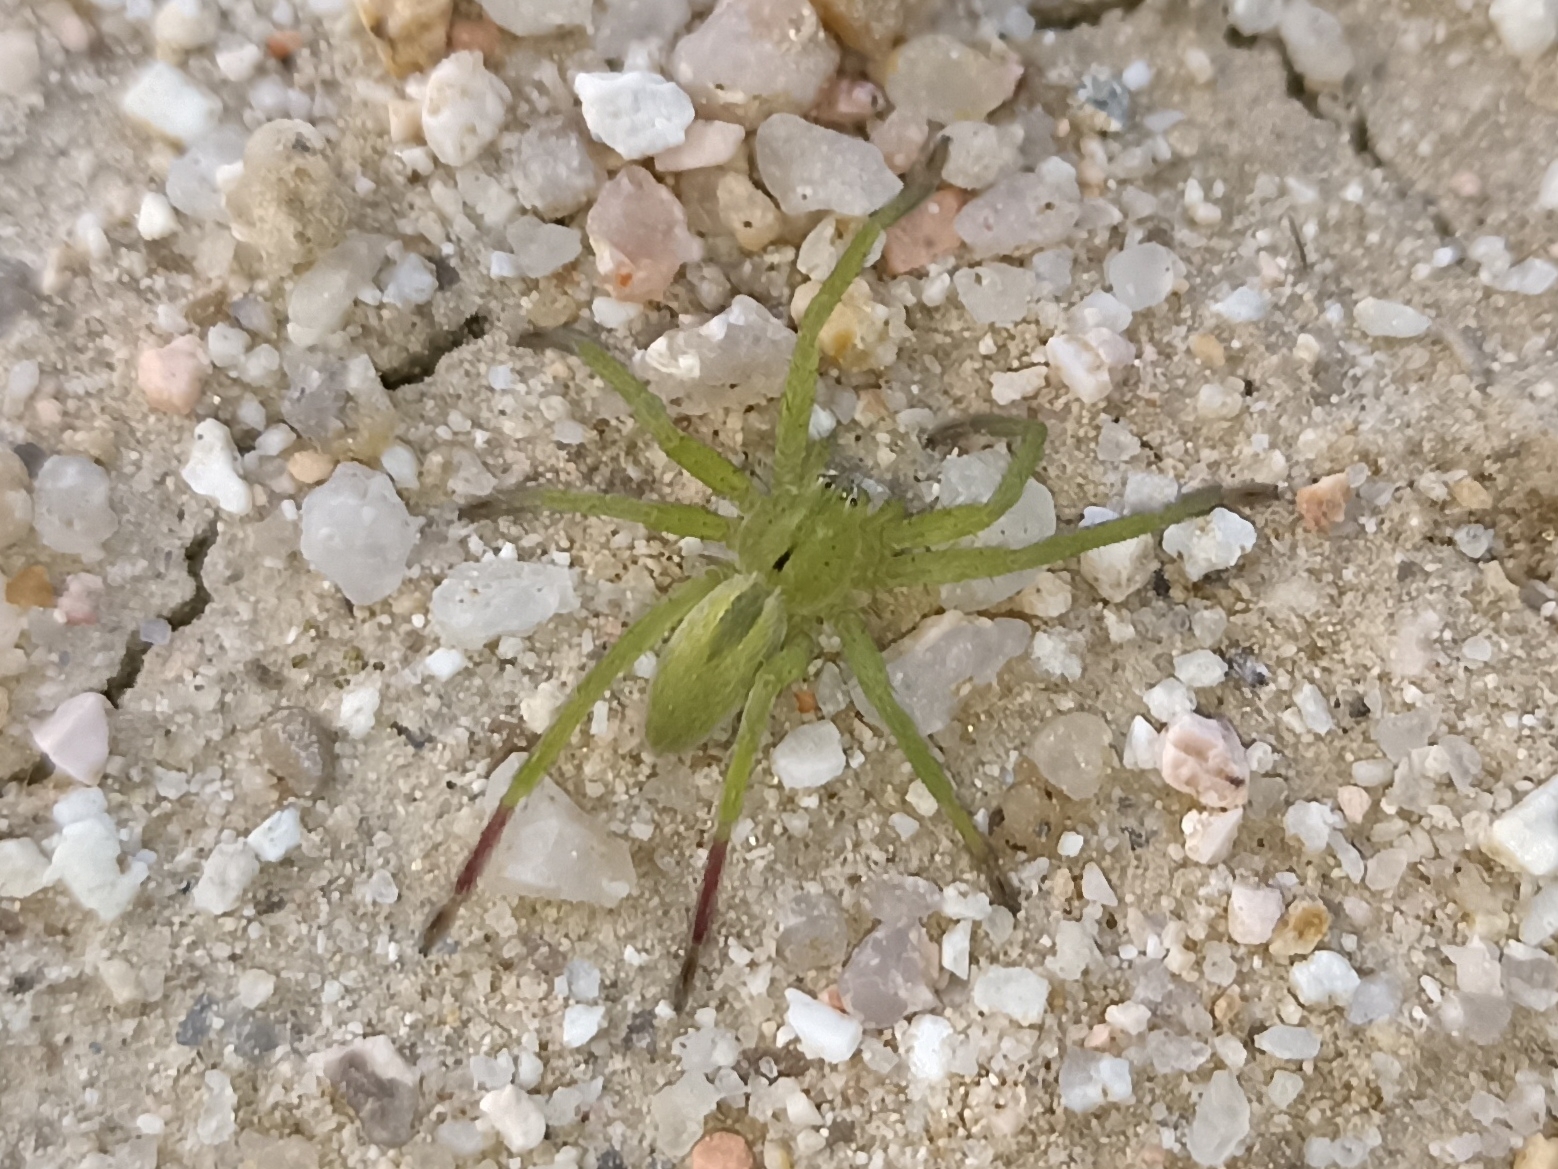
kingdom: Animalia
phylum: Arthropoda
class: Arachnida
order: Araneae
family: Sparassidae
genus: Micrommata
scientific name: Micrommata ligurina
